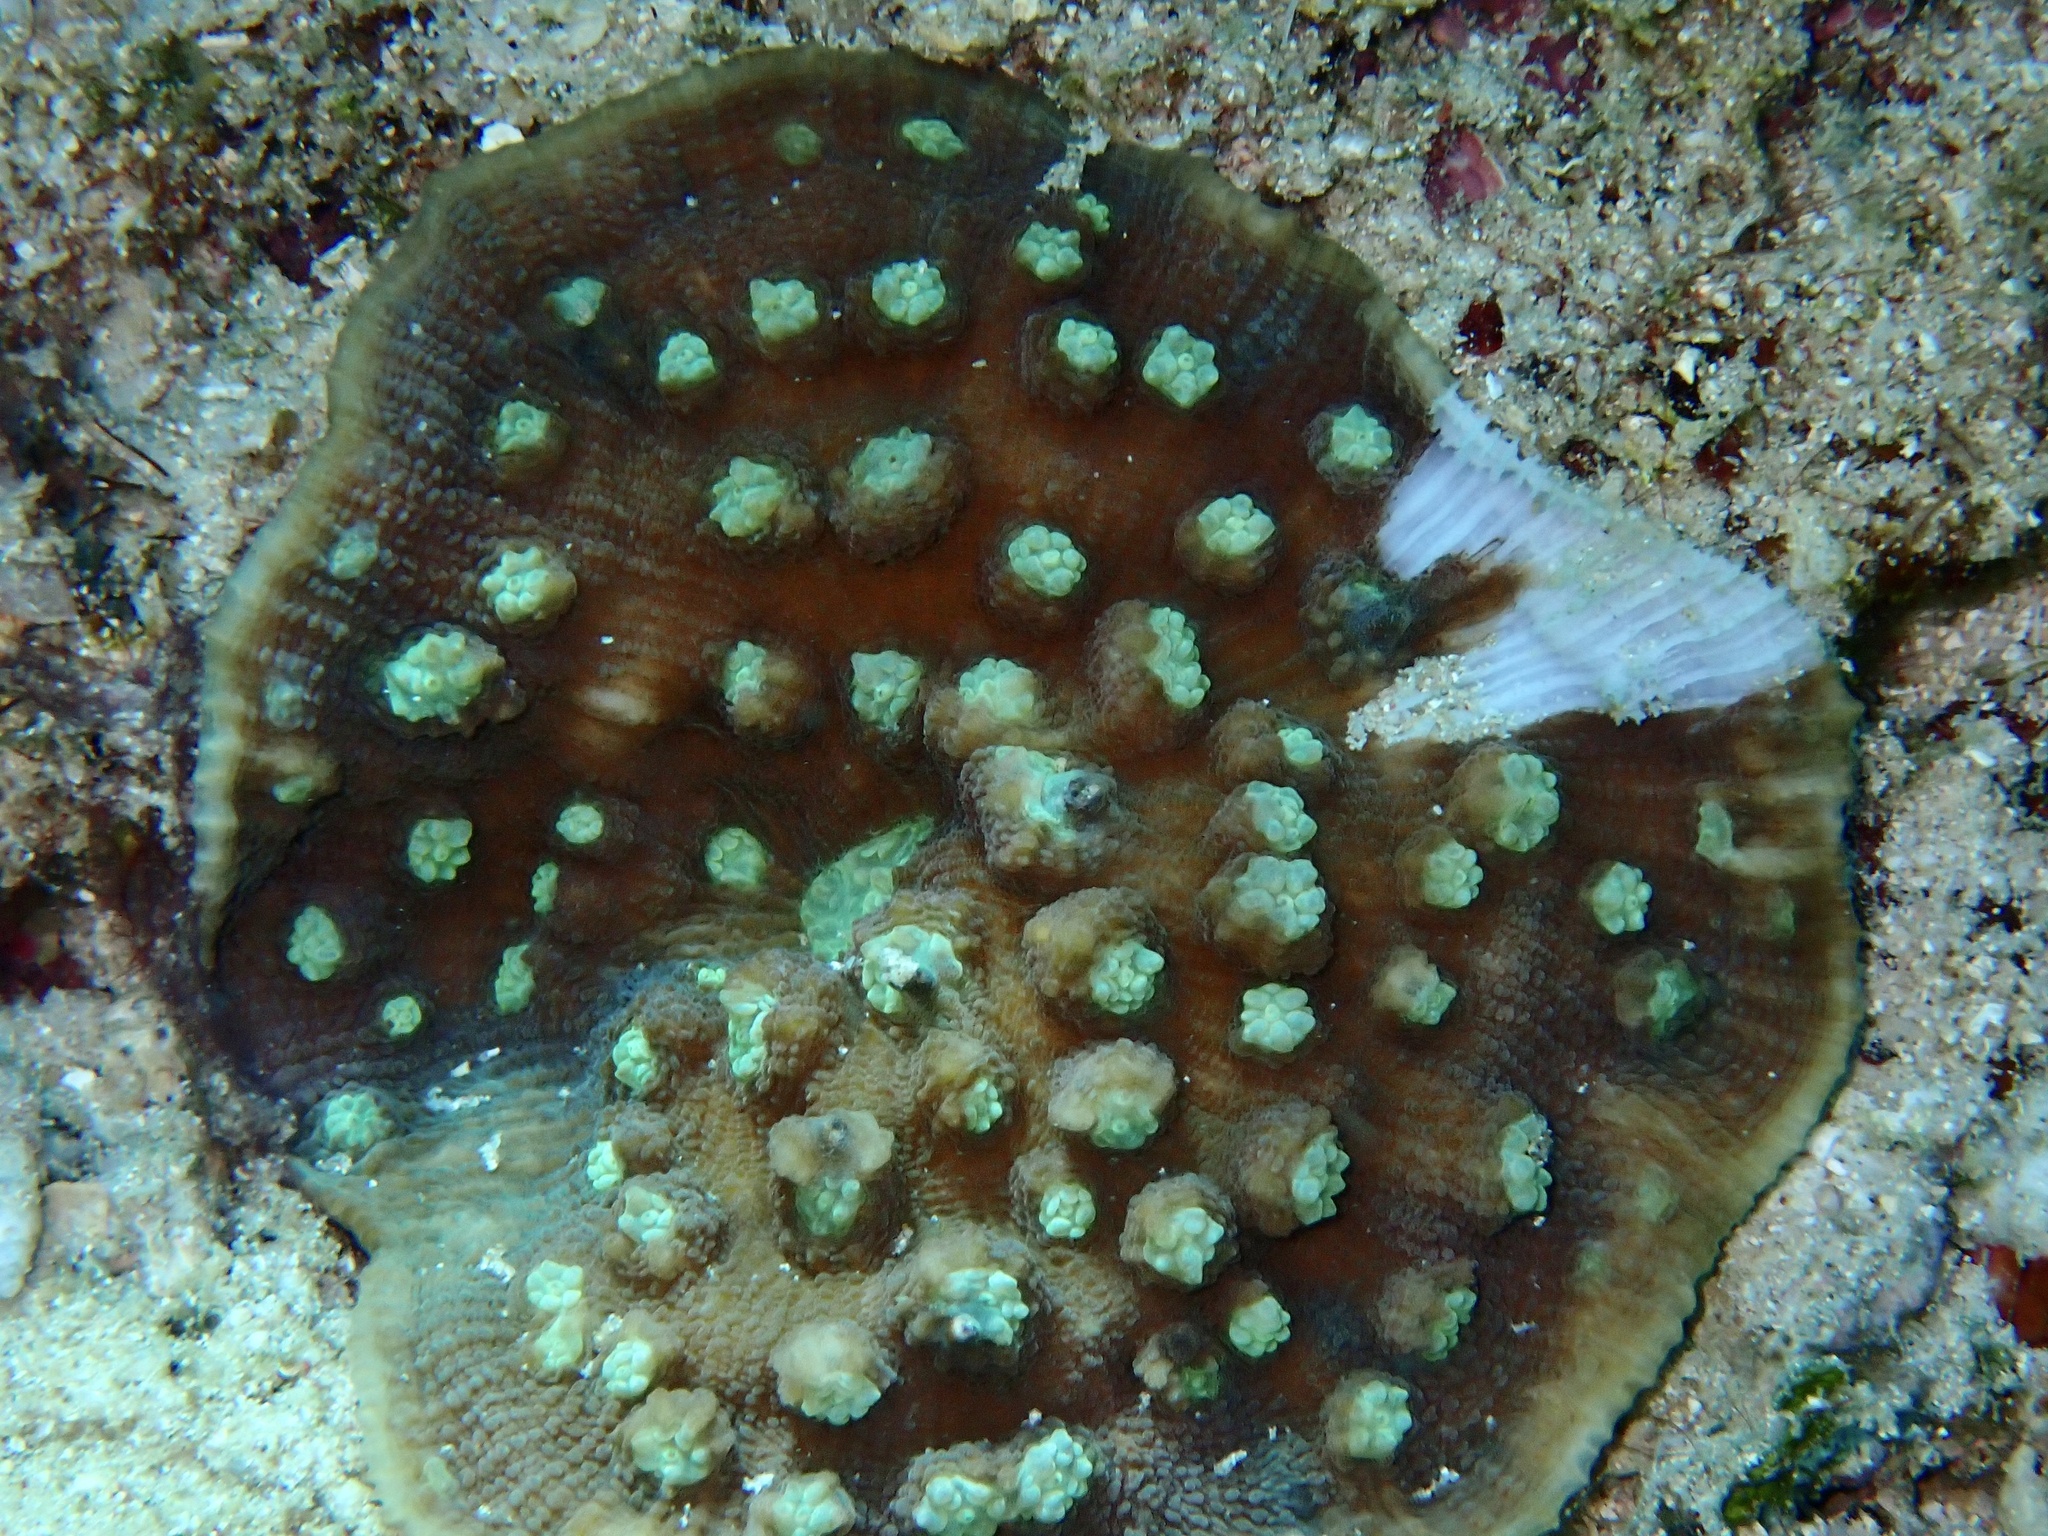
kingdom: Animalia
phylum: Cnidaria
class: Anthozoa
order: Scleractinia
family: Merulinidae
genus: Mycedium
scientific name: Mycedium elephantotus
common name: Chinese lettuce coral
